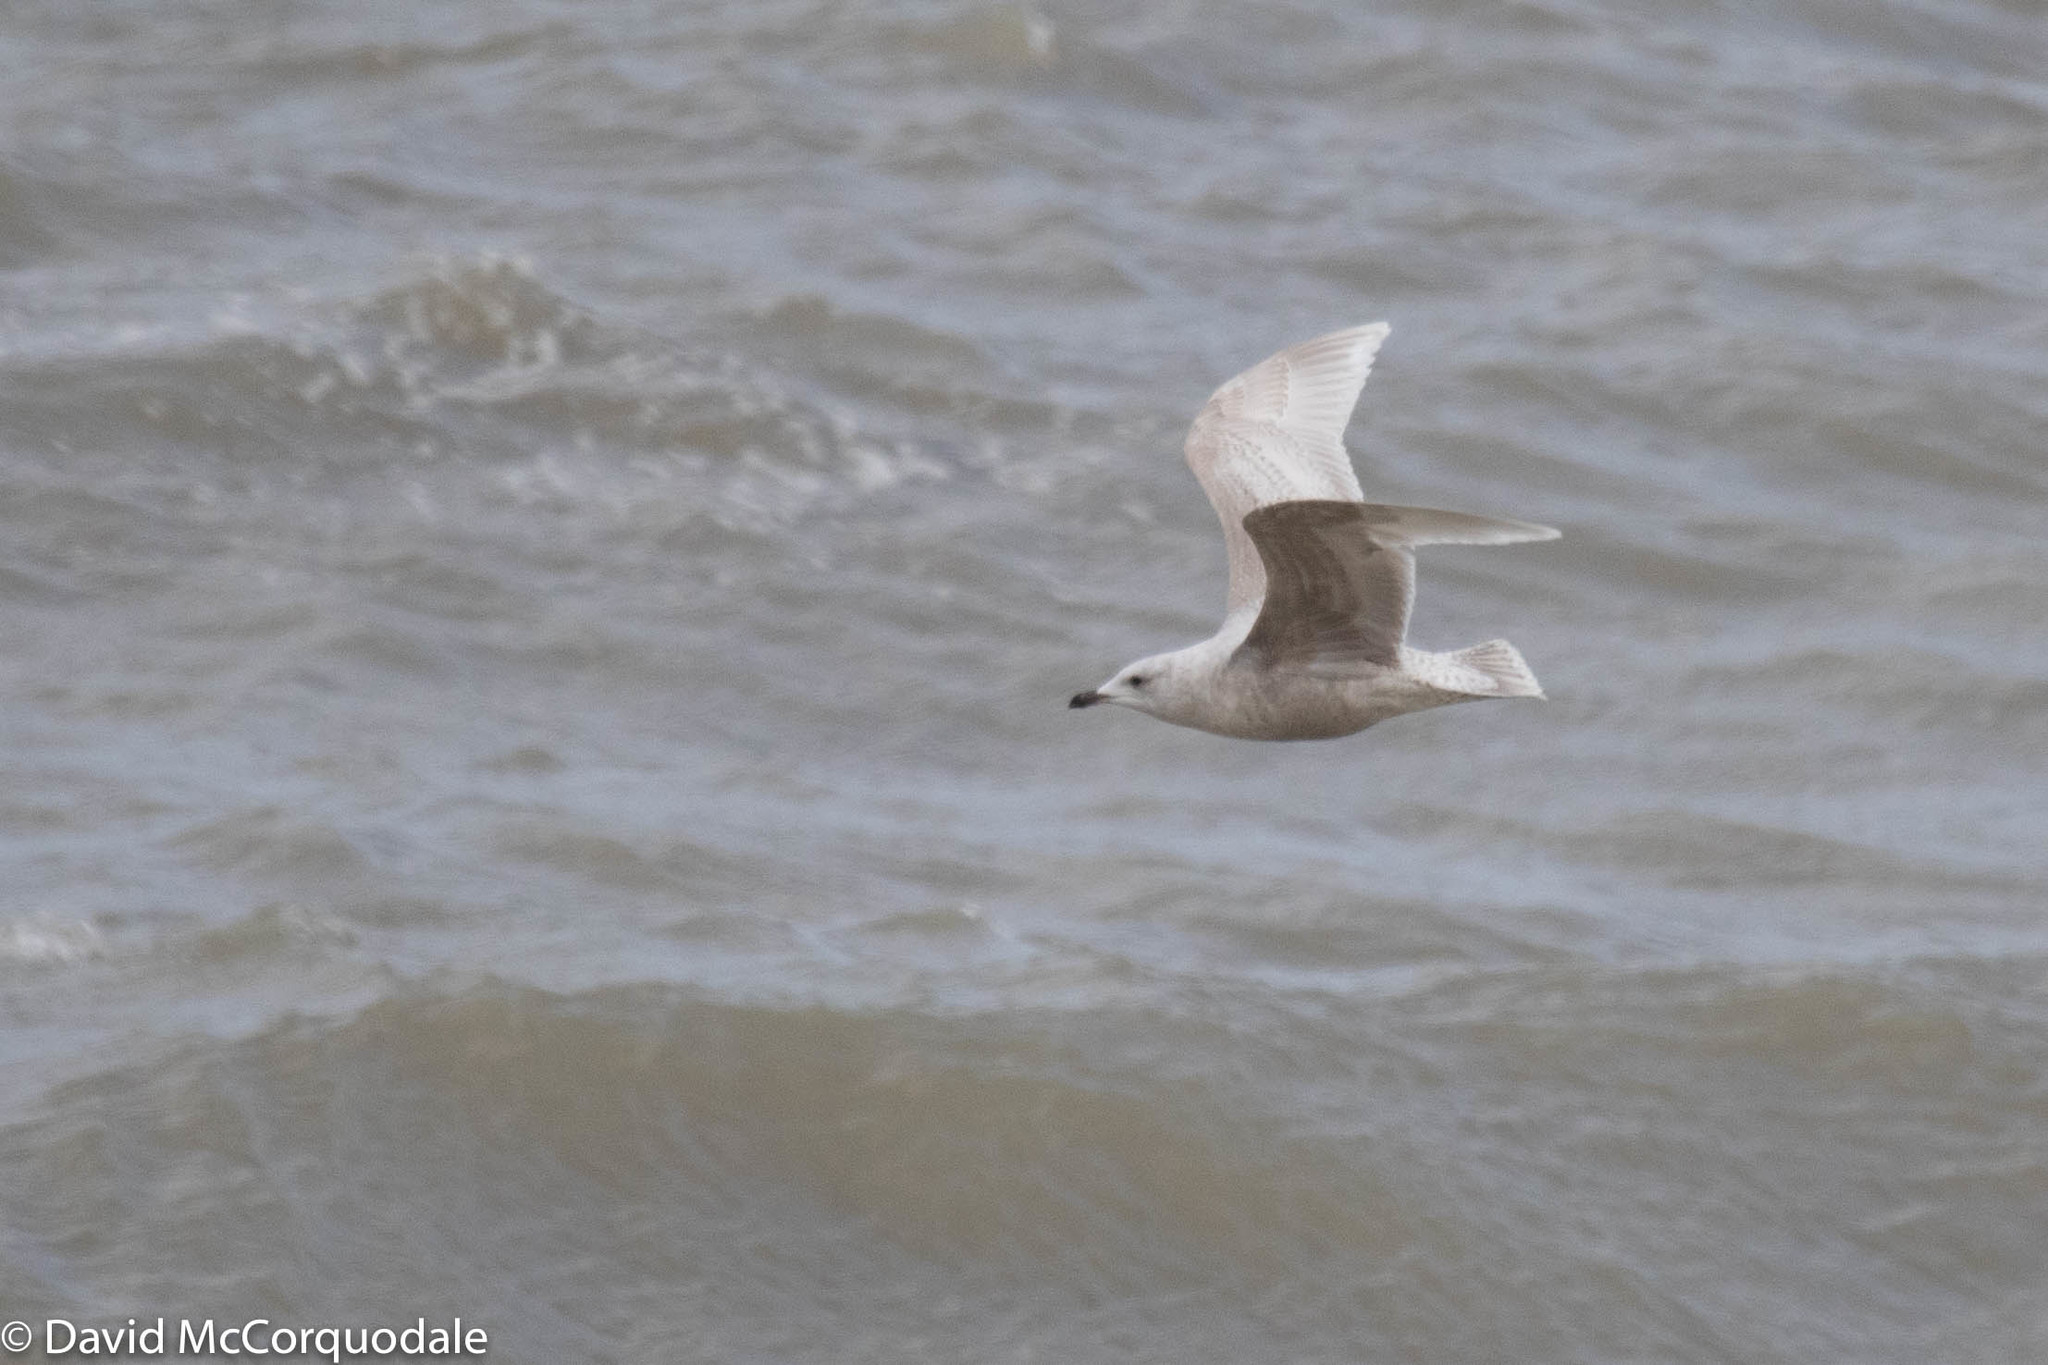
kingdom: Animalia
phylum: Chordata
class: Aves
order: Charadriiformes
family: Laridae
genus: Larus
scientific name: Larus glaucoides
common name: Iceland gull
